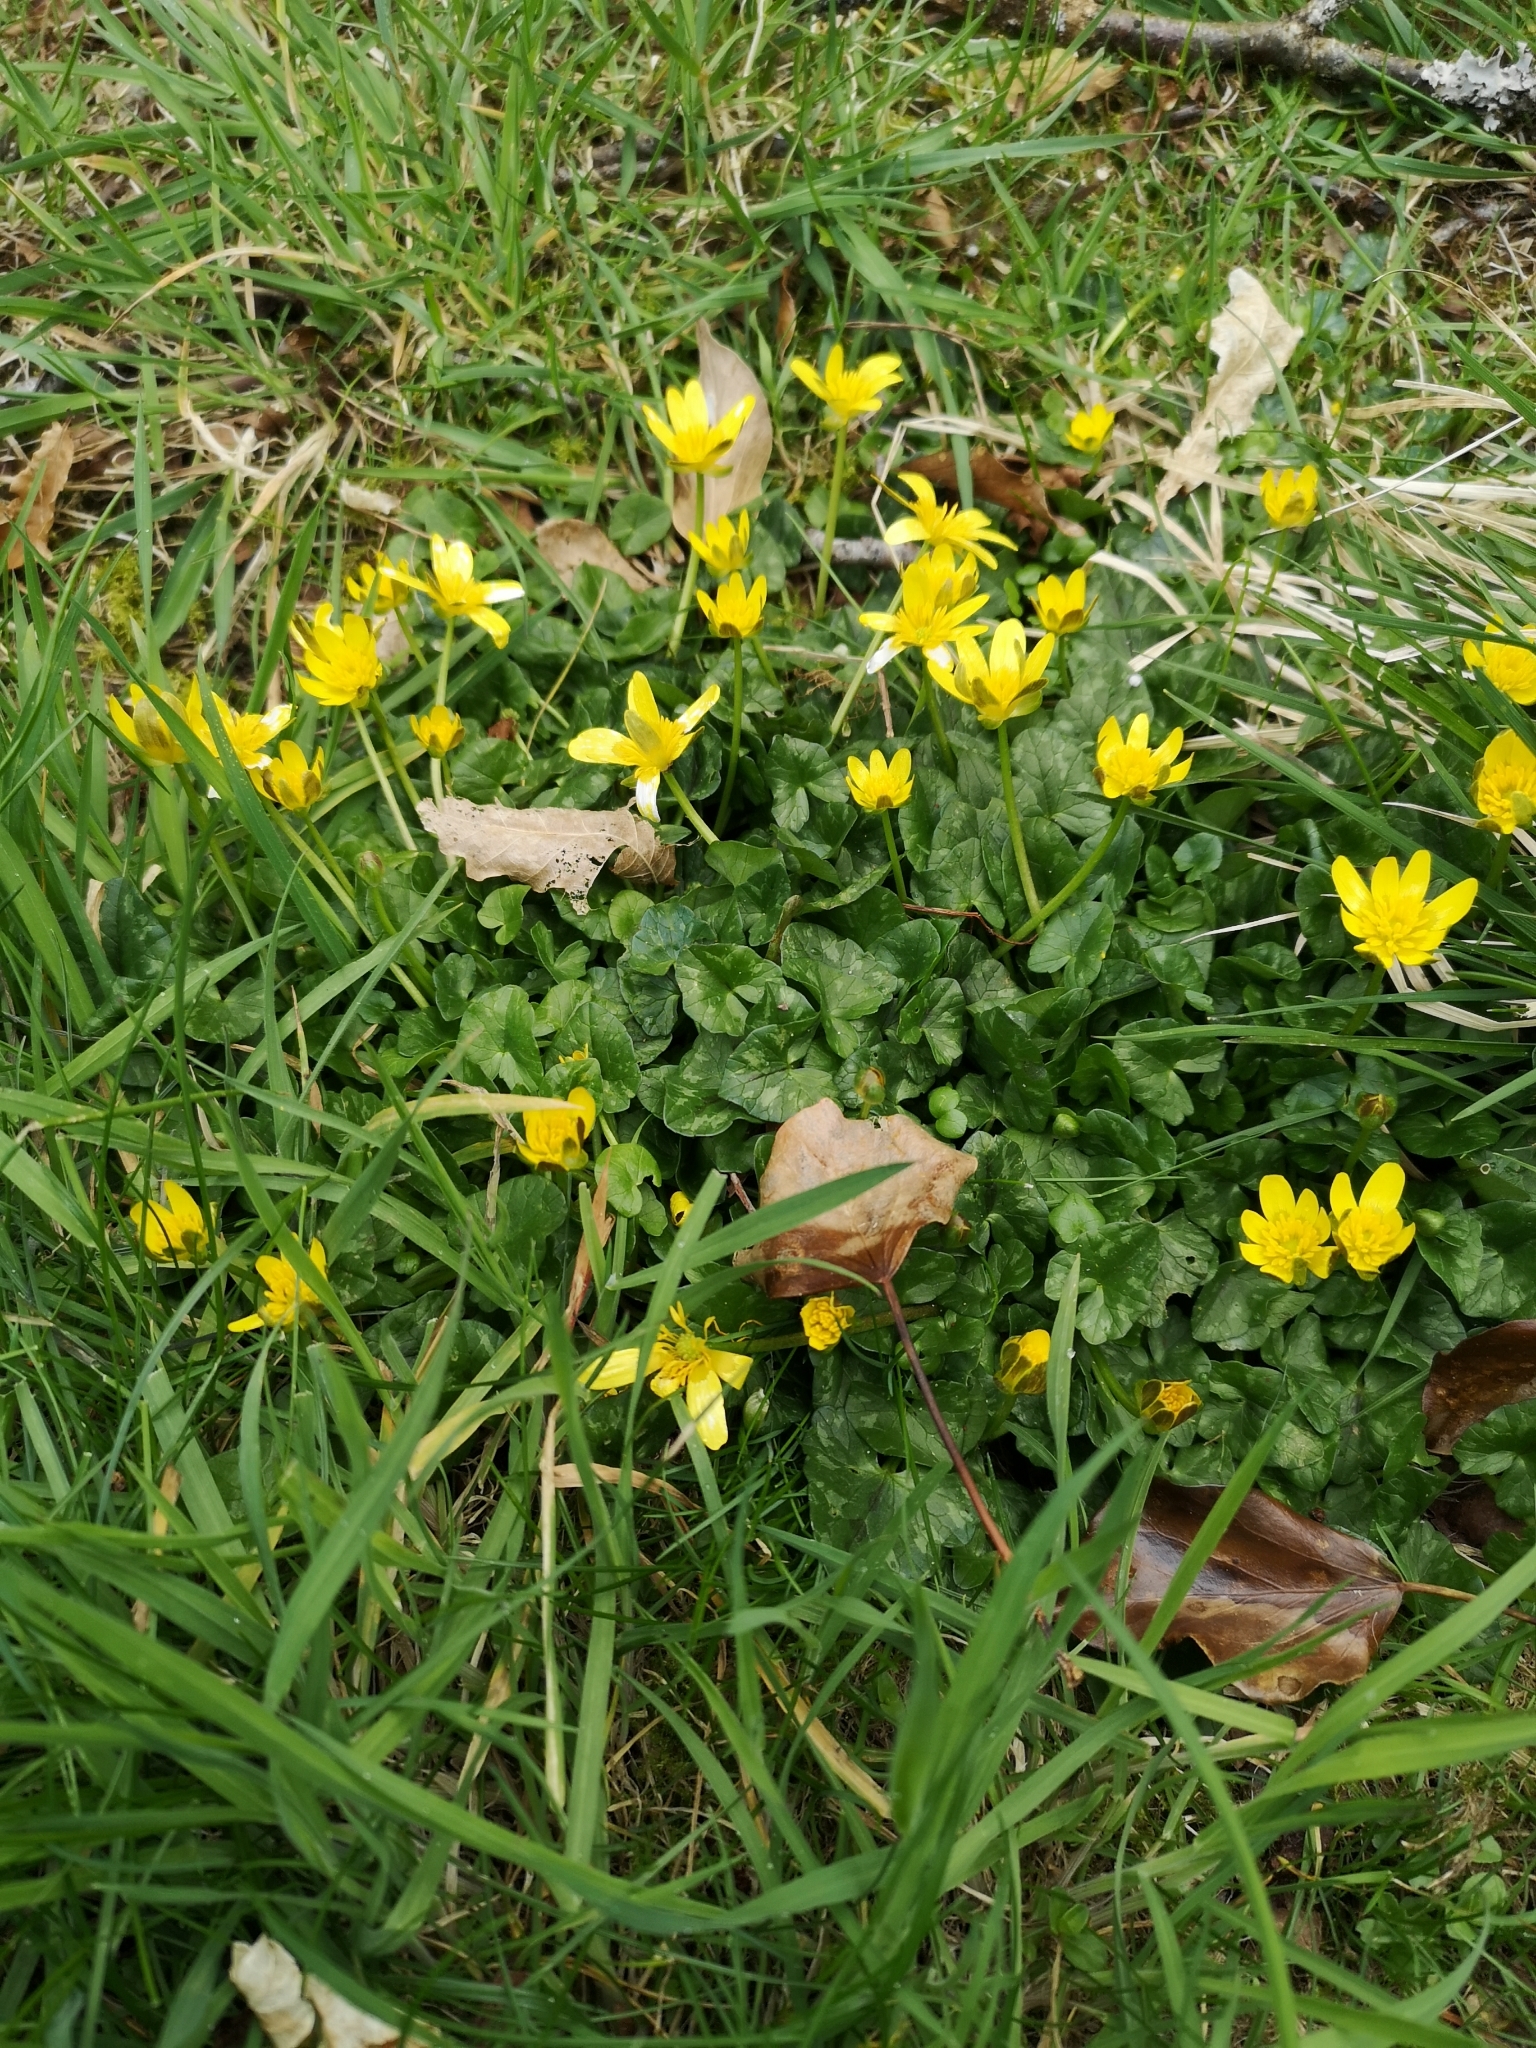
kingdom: Plantae
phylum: Tracheophyta
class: Magnoliopsida
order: Ranunculales
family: Ranunculaceae
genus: Ficaria
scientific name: Ficaria verna
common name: Lesser celandine
